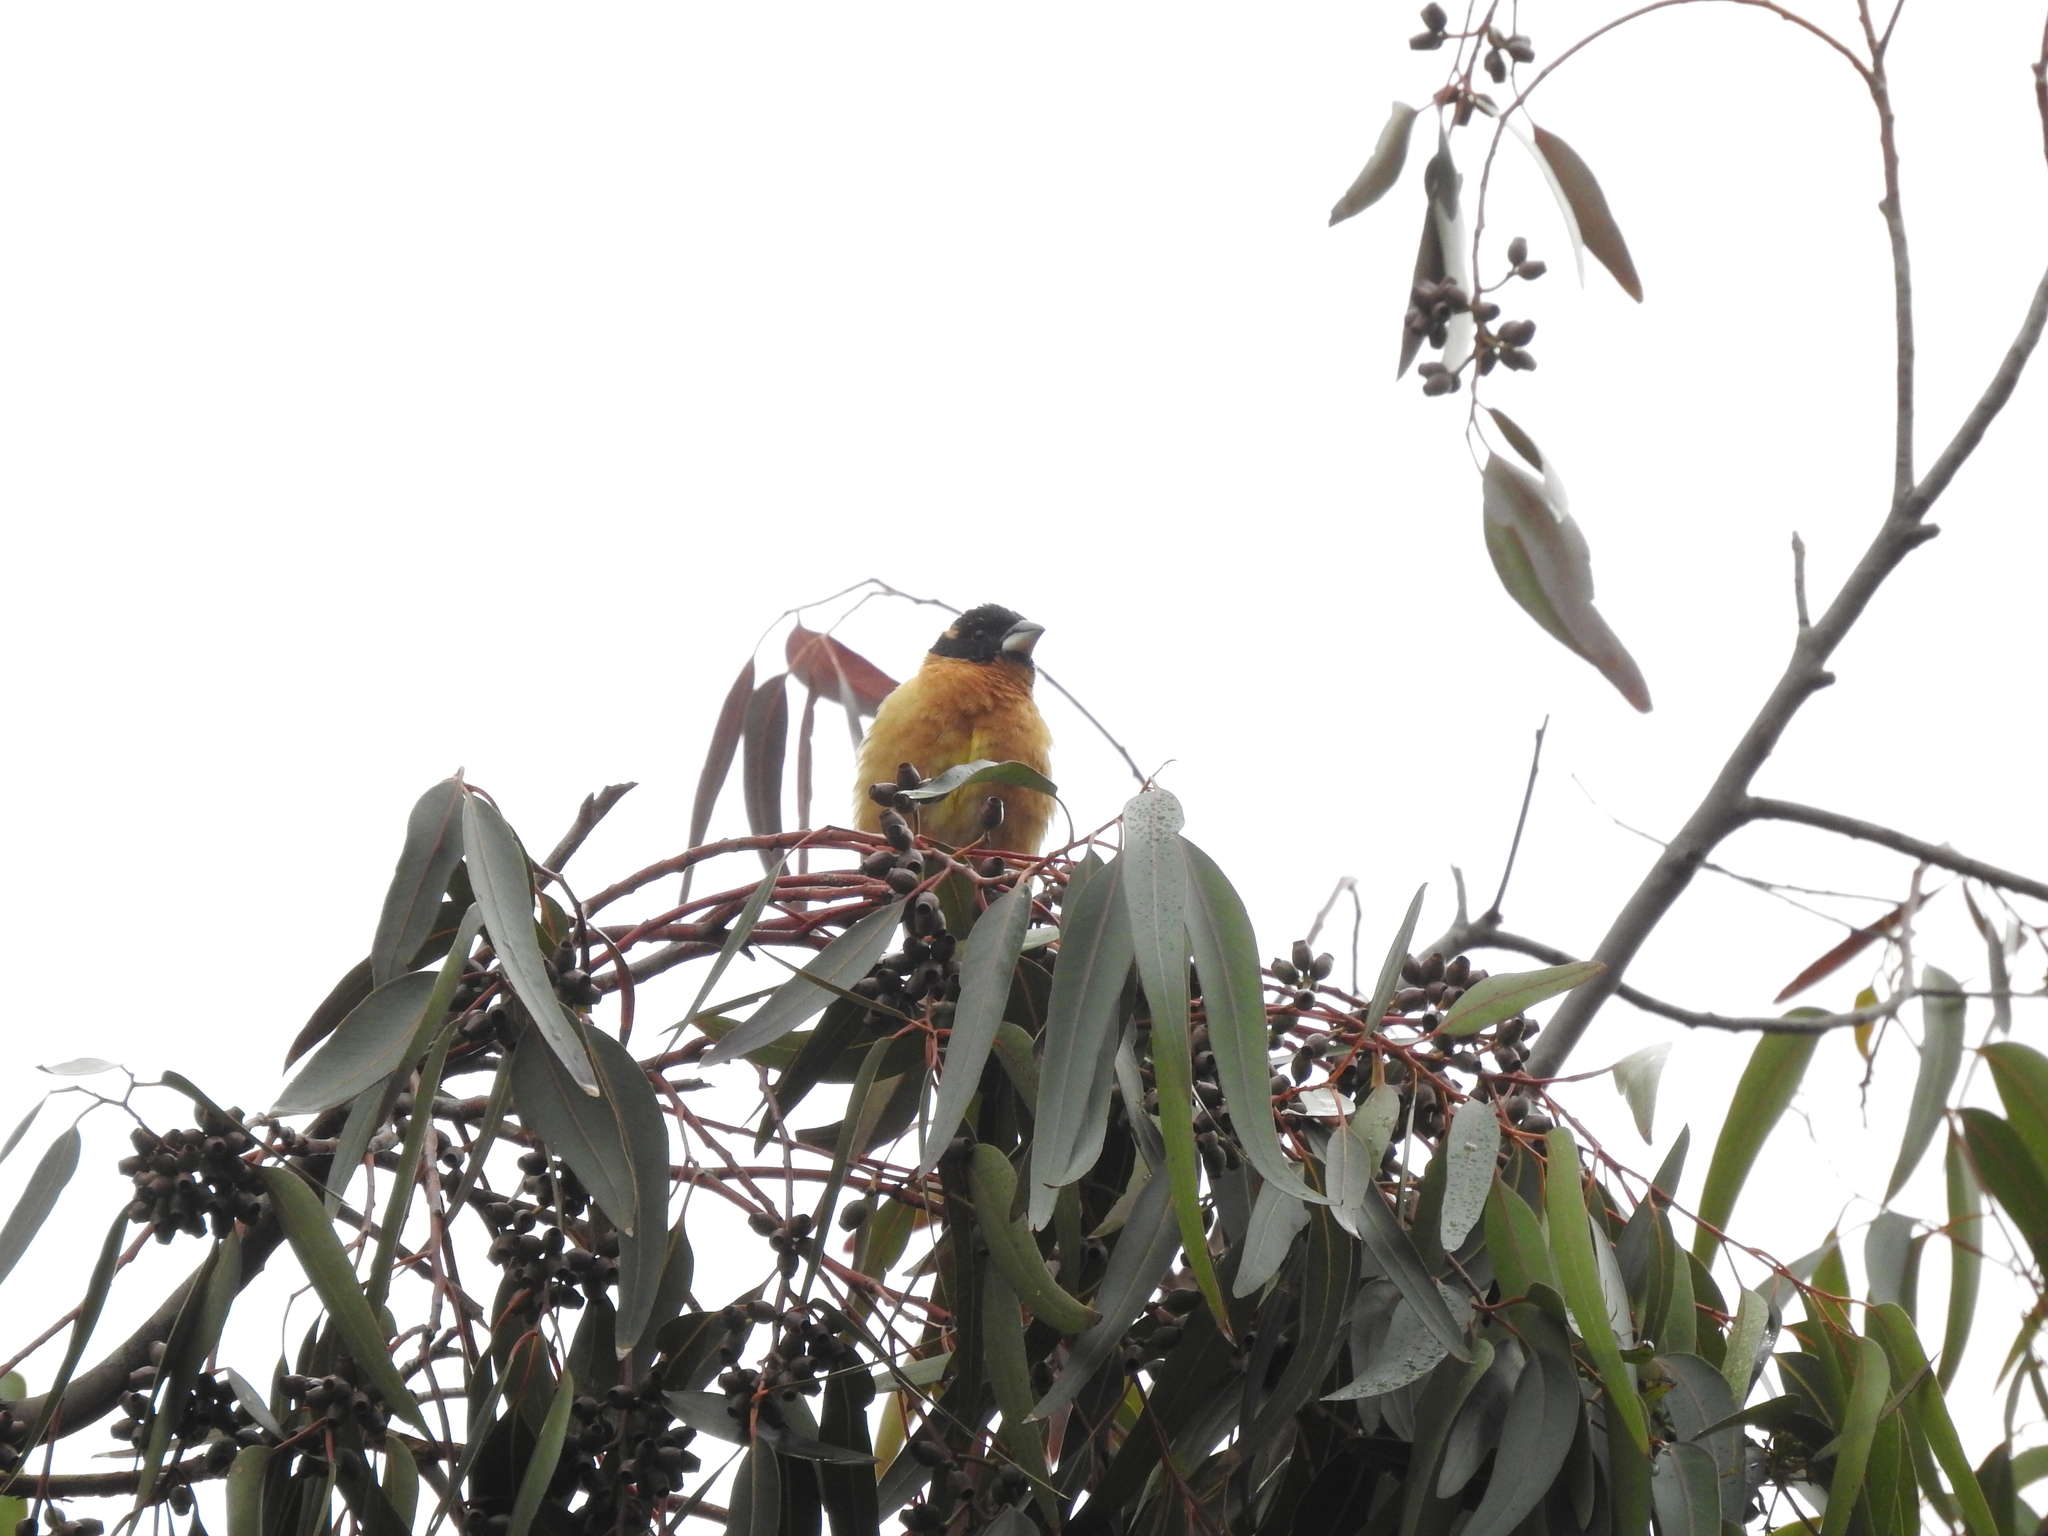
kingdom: Animalia
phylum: Chordata
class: Aves
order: Passeriformes
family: Cardinalidae
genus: Pheucticus
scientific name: Pheucticus melanocephalus
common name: Black-headed grosbeak
